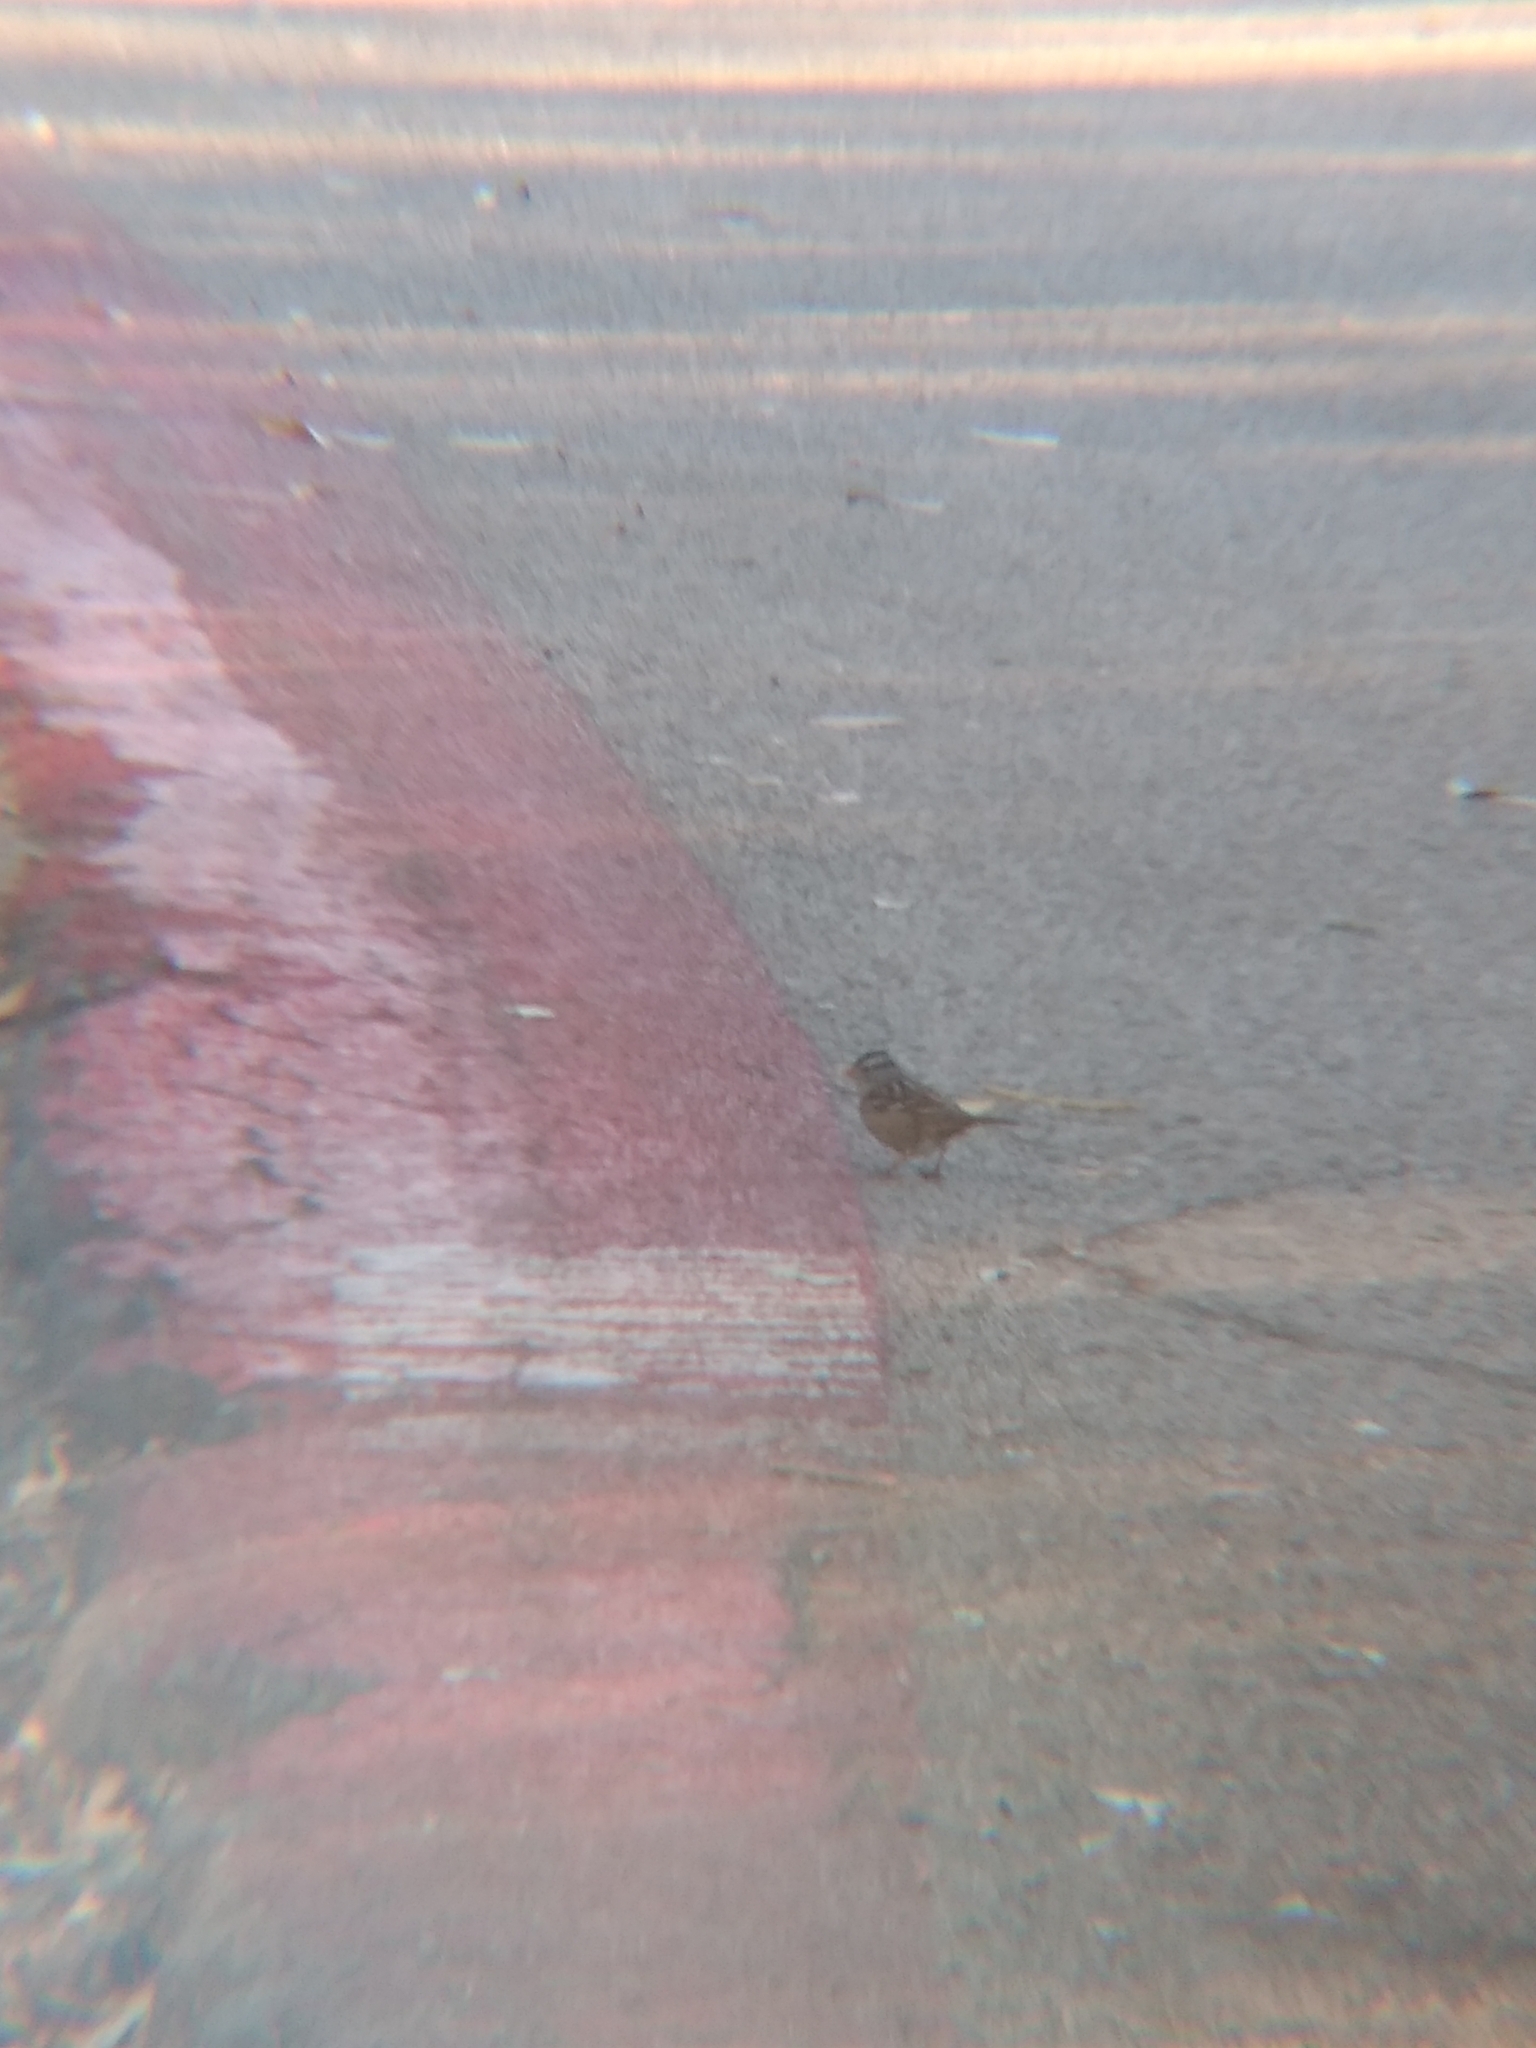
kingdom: Animalia
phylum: Chordata
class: Aves
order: Passeriformes
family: Passerellidae
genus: Zonotrichia
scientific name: Zonotrichia leucophrys
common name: White-crowned sparrow
